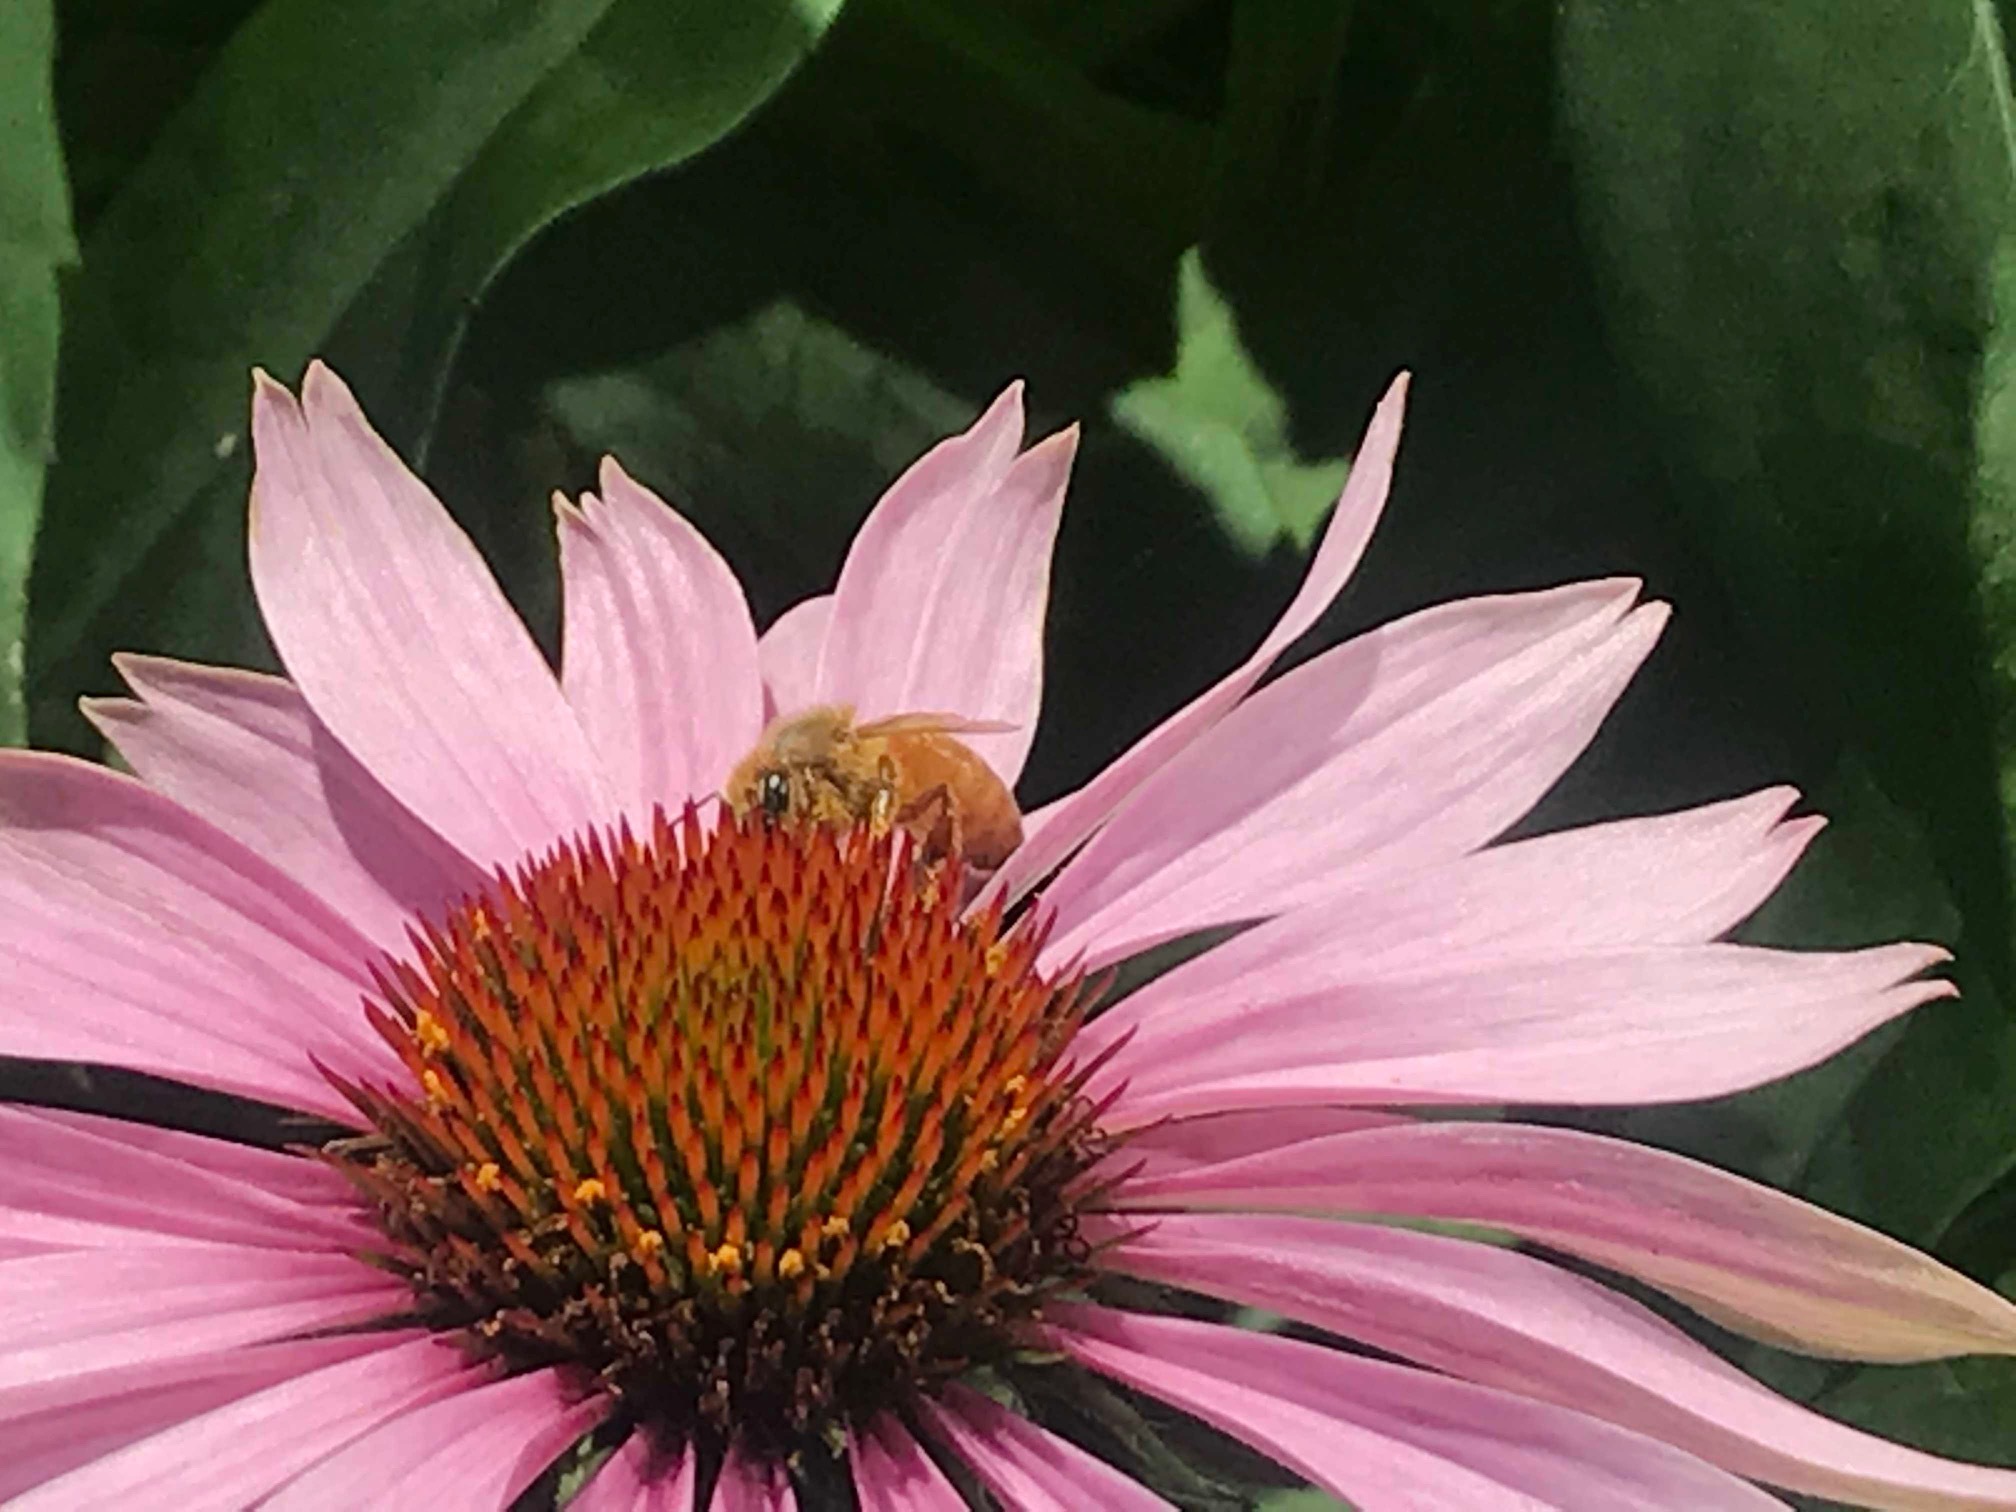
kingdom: Animalia
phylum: Arthropoda
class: Insecta
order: Hymenoptera
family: Apidae
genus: Apis
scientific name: Apis mellifera
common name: Honey bee
